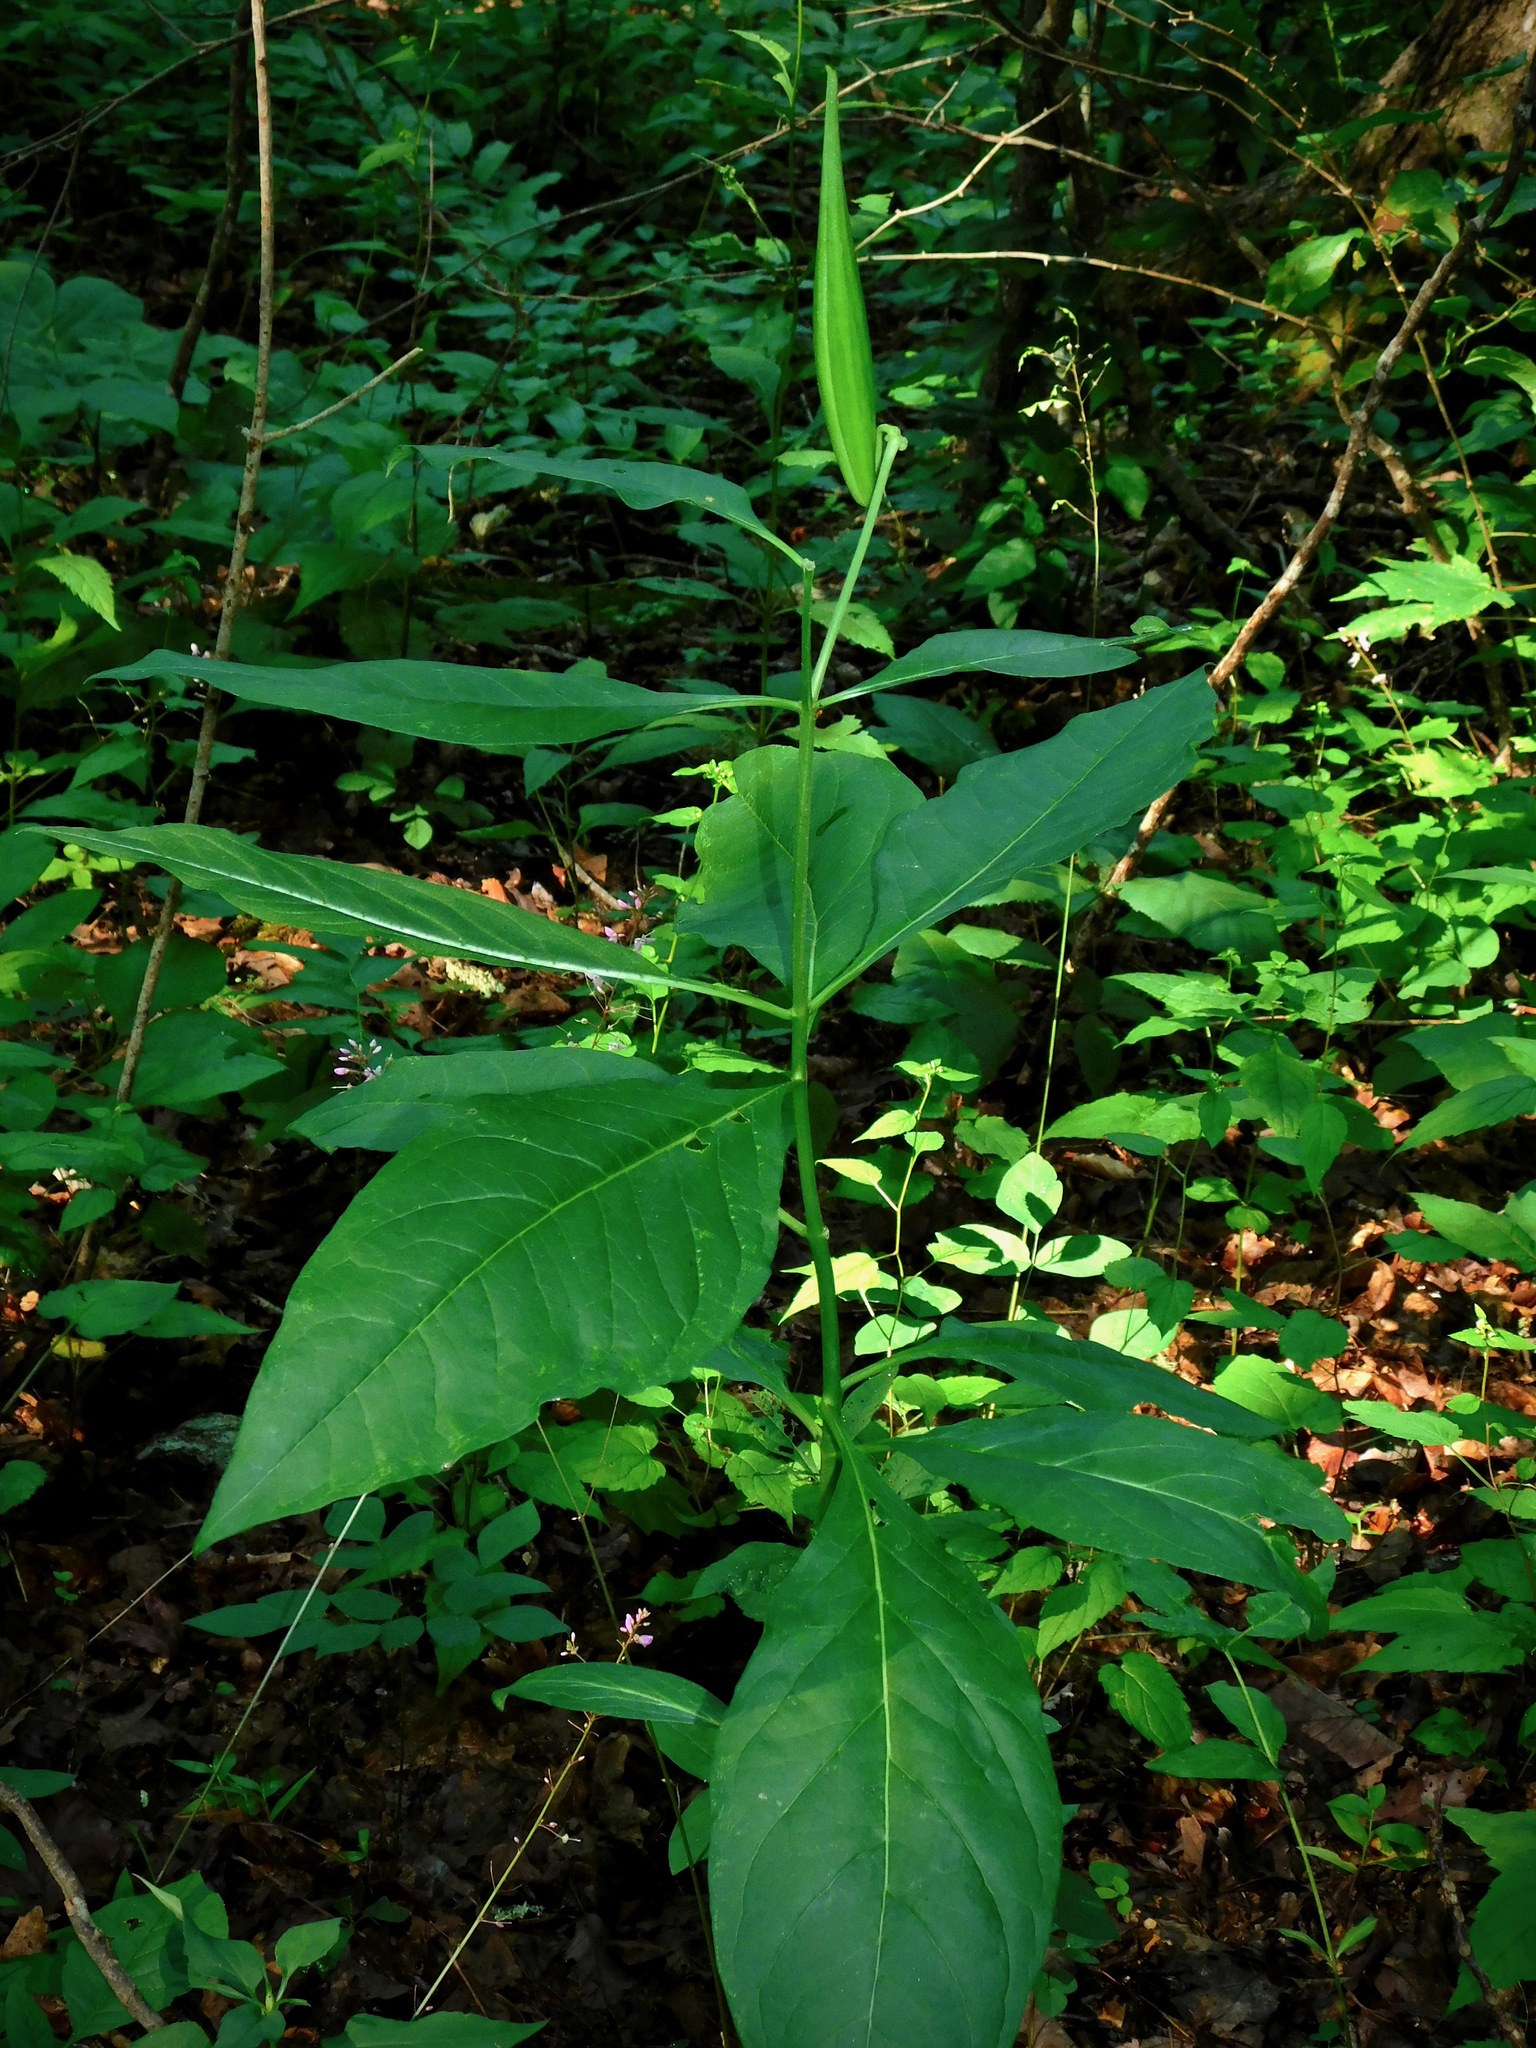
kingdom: Plantae
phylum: Tracheophyta
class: Magnoliopsida
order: Gentianales
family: Apocynaceae
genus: Asclepias
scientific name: Asclepias exaltata
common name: Poke milkweed
